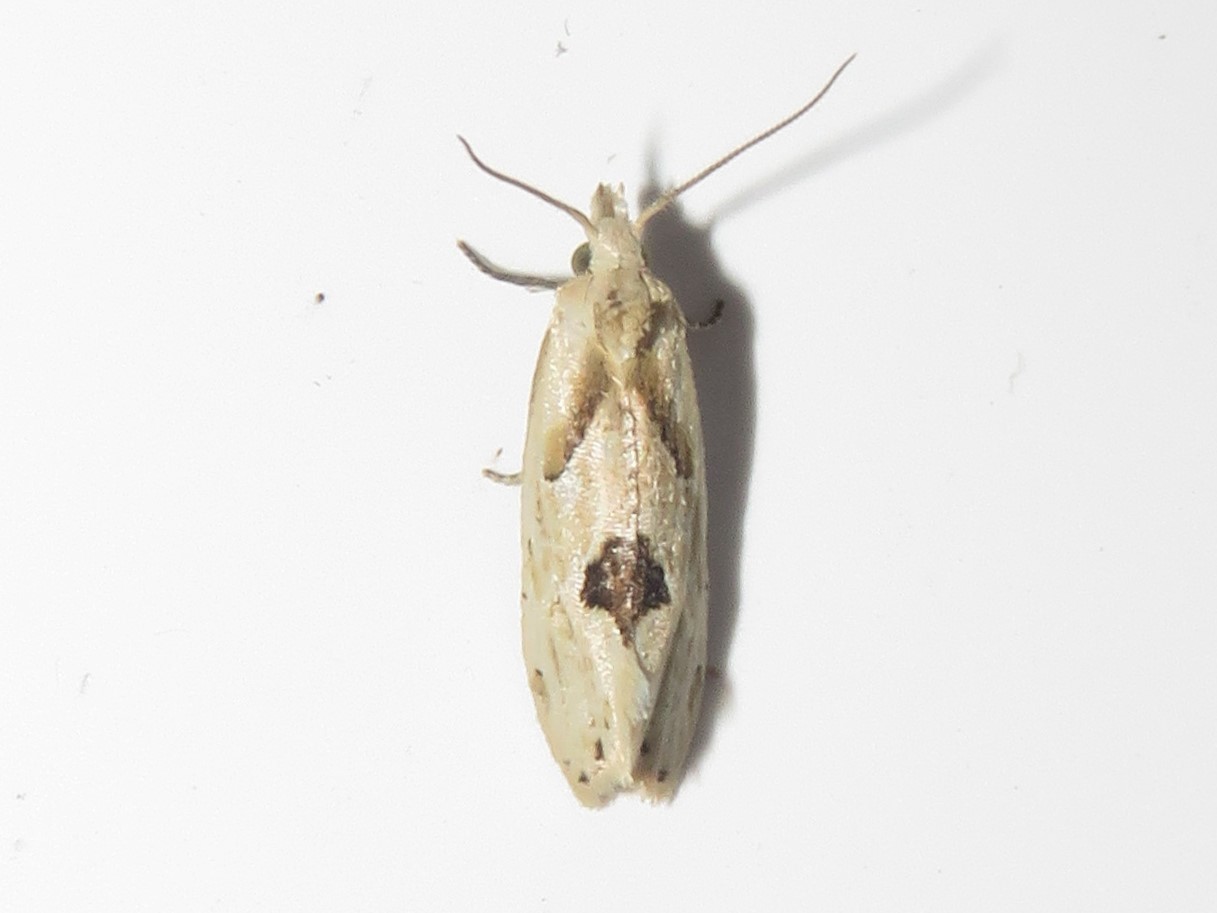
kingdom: Animalia
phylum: Arthropoda
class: Insecta
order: Lepidoptera
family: Tortricidae
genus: Aethes
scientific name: Aethes mymara
